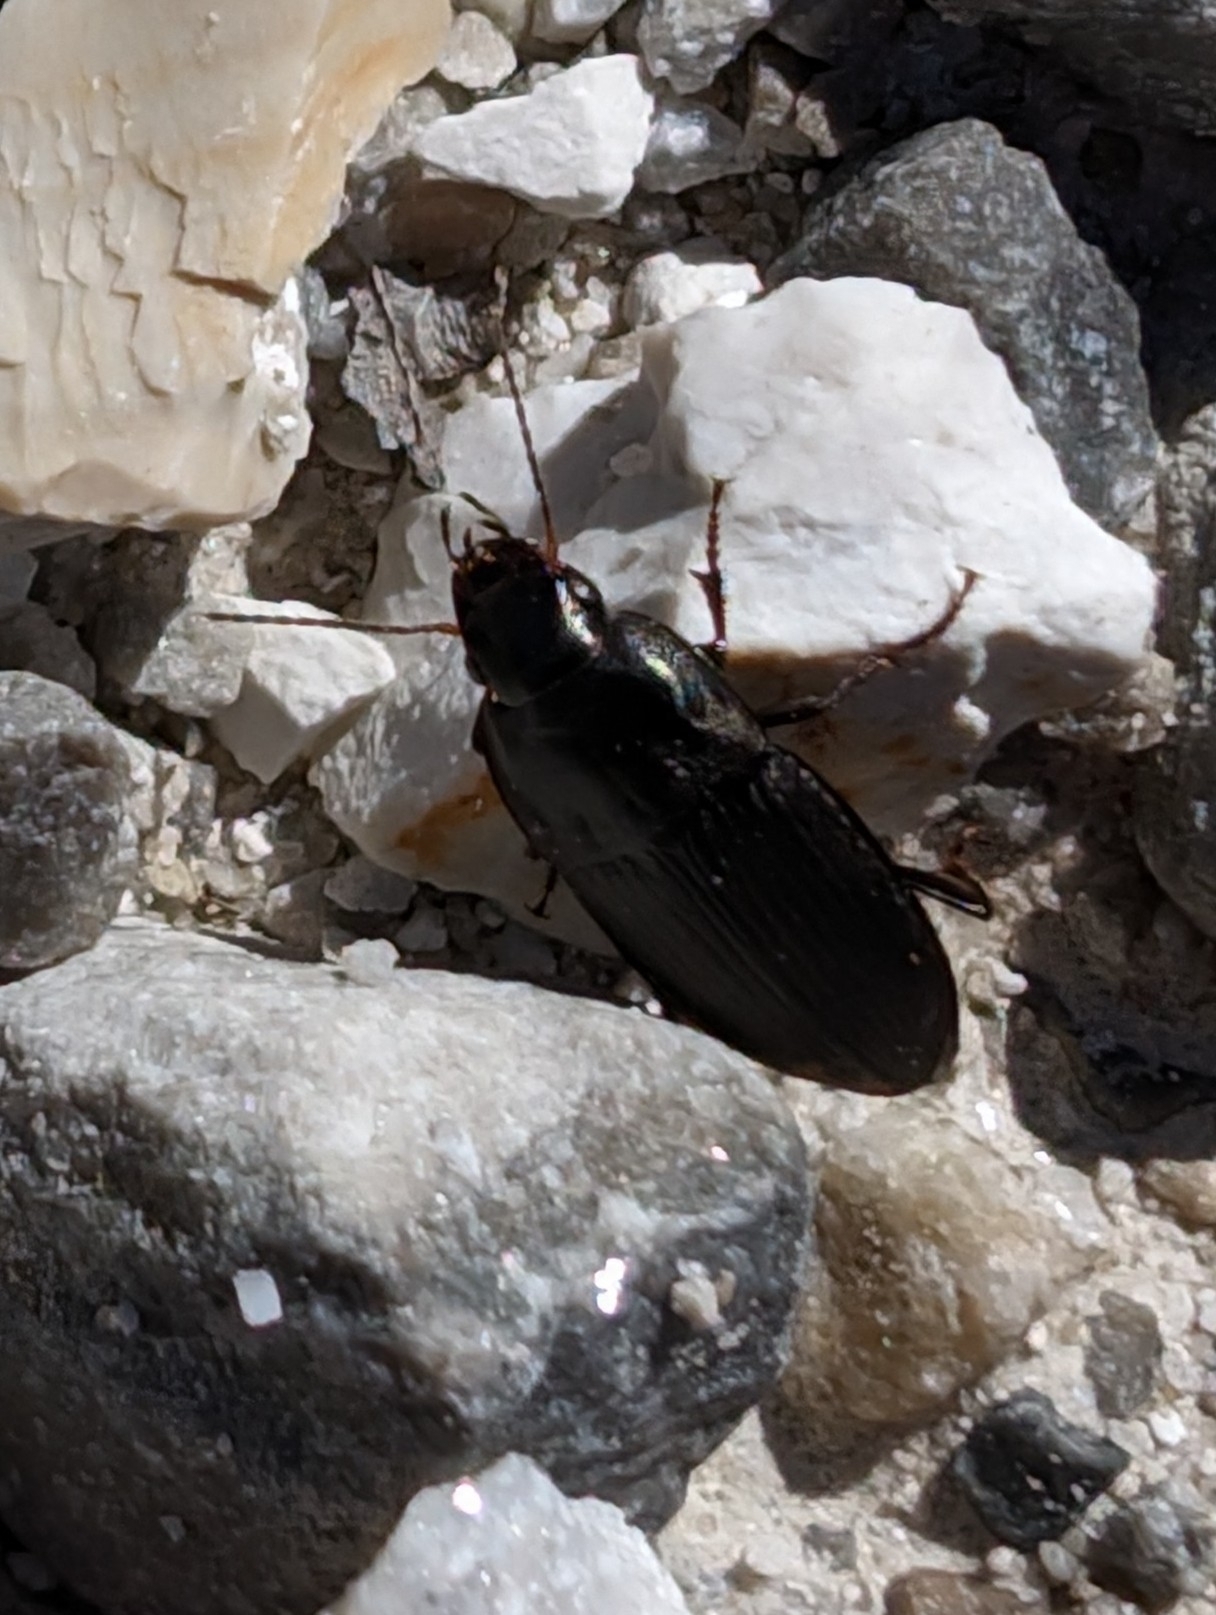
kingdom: Animalia
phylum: Arthropoda
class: Insecta
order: Coleoptera
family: Carabidae
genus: Anisodactylus
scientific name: Anisodactylus rusticus
